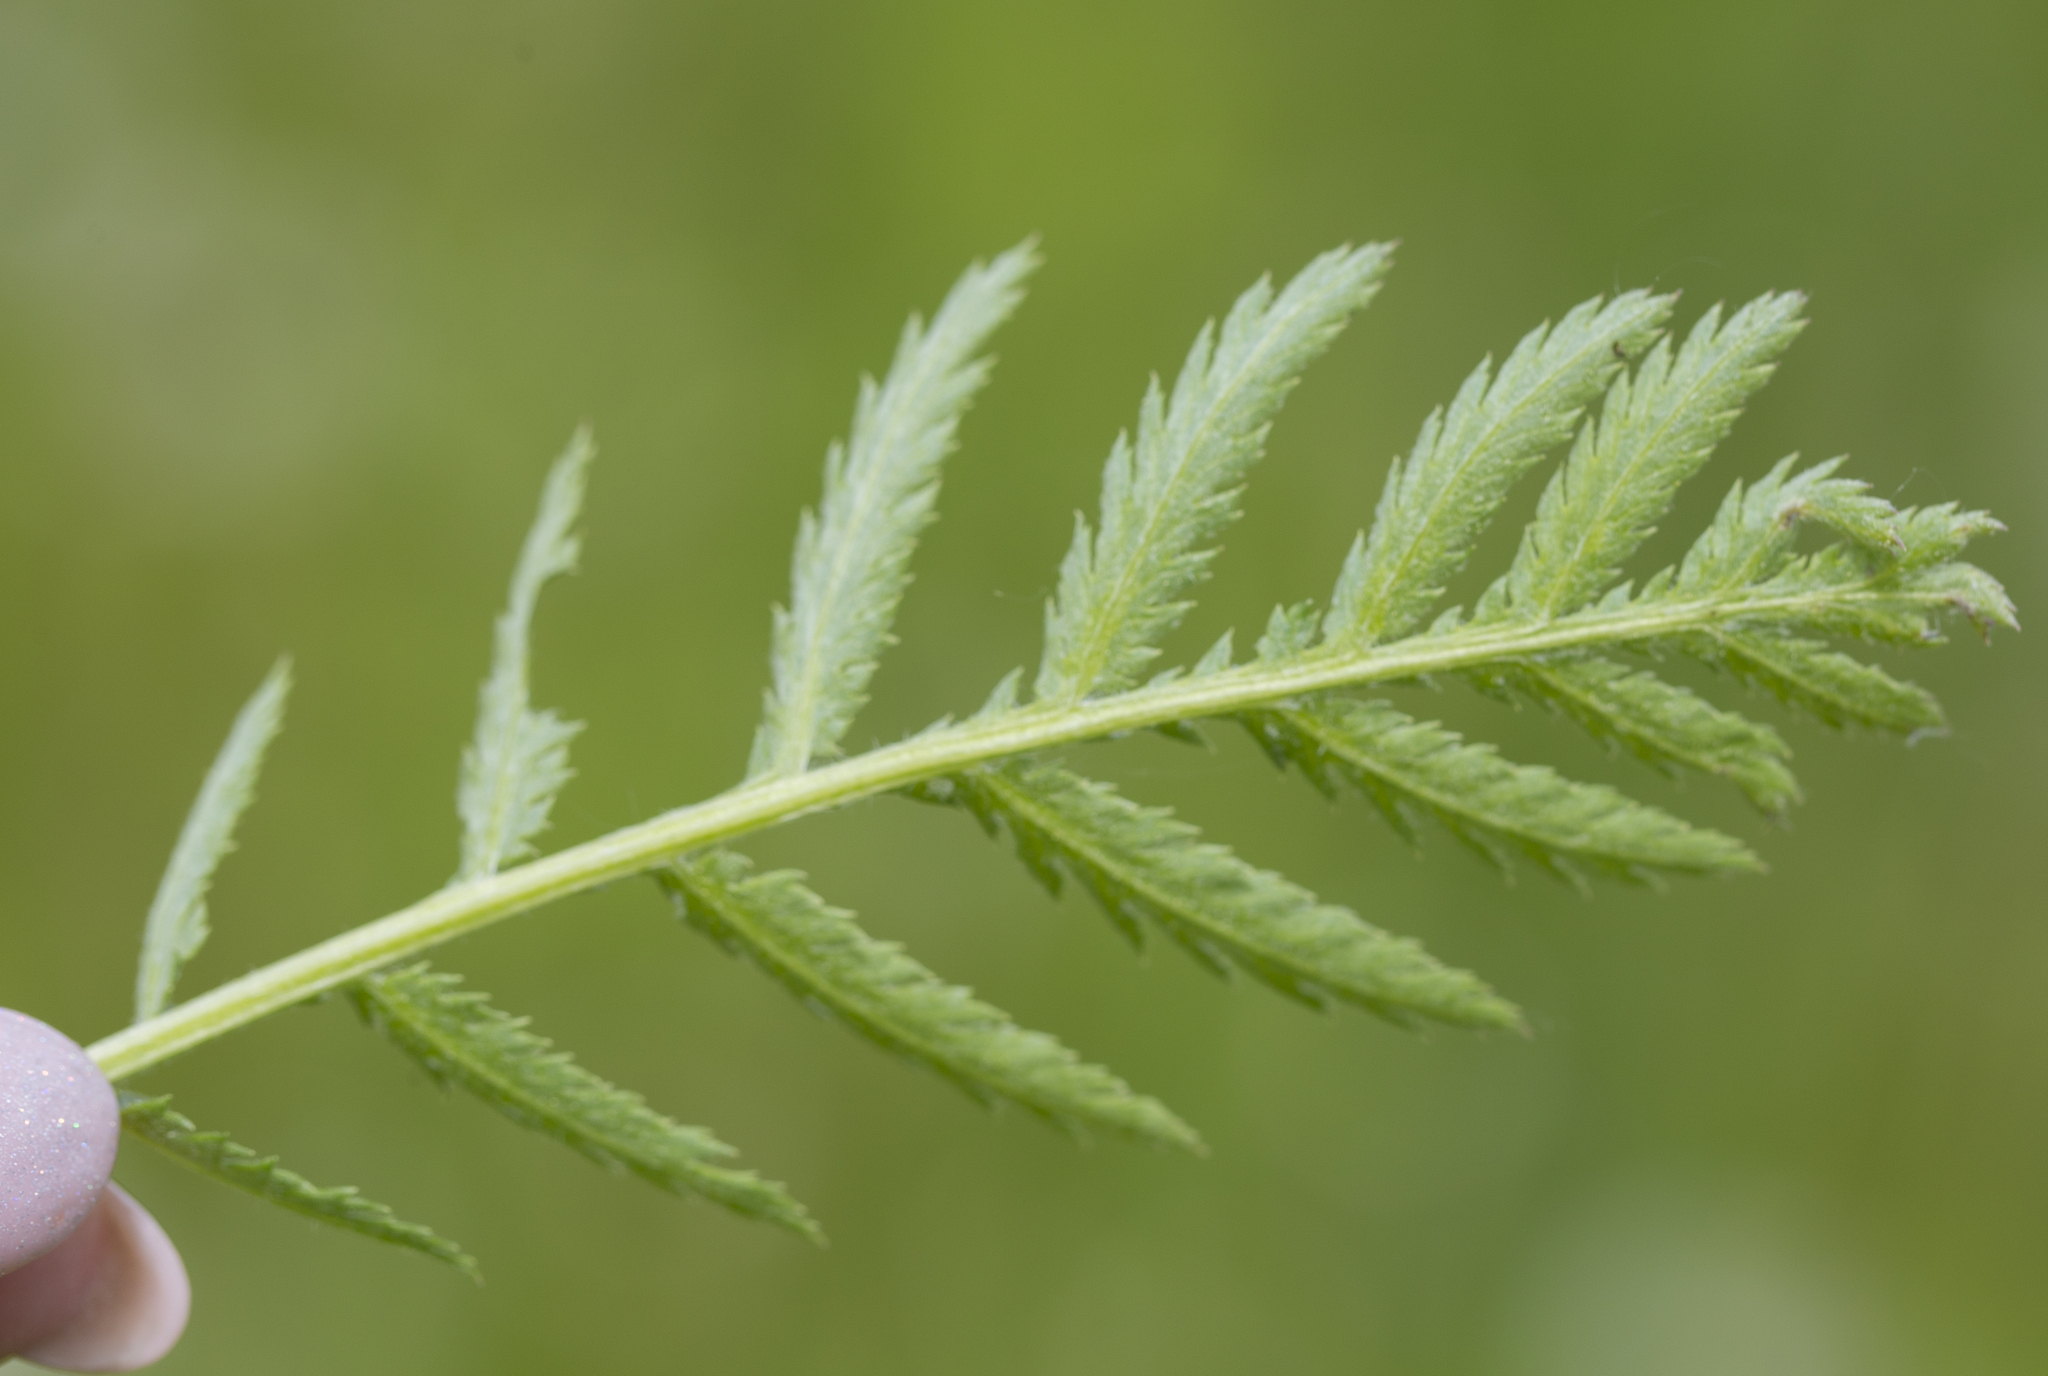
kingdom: Plantae
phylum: Tracheophyta
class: Magnoliopsida
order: Asterales
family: Asteraceae
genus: Tanacetum
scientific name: Tanacetum vulgare
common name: Common tansy
